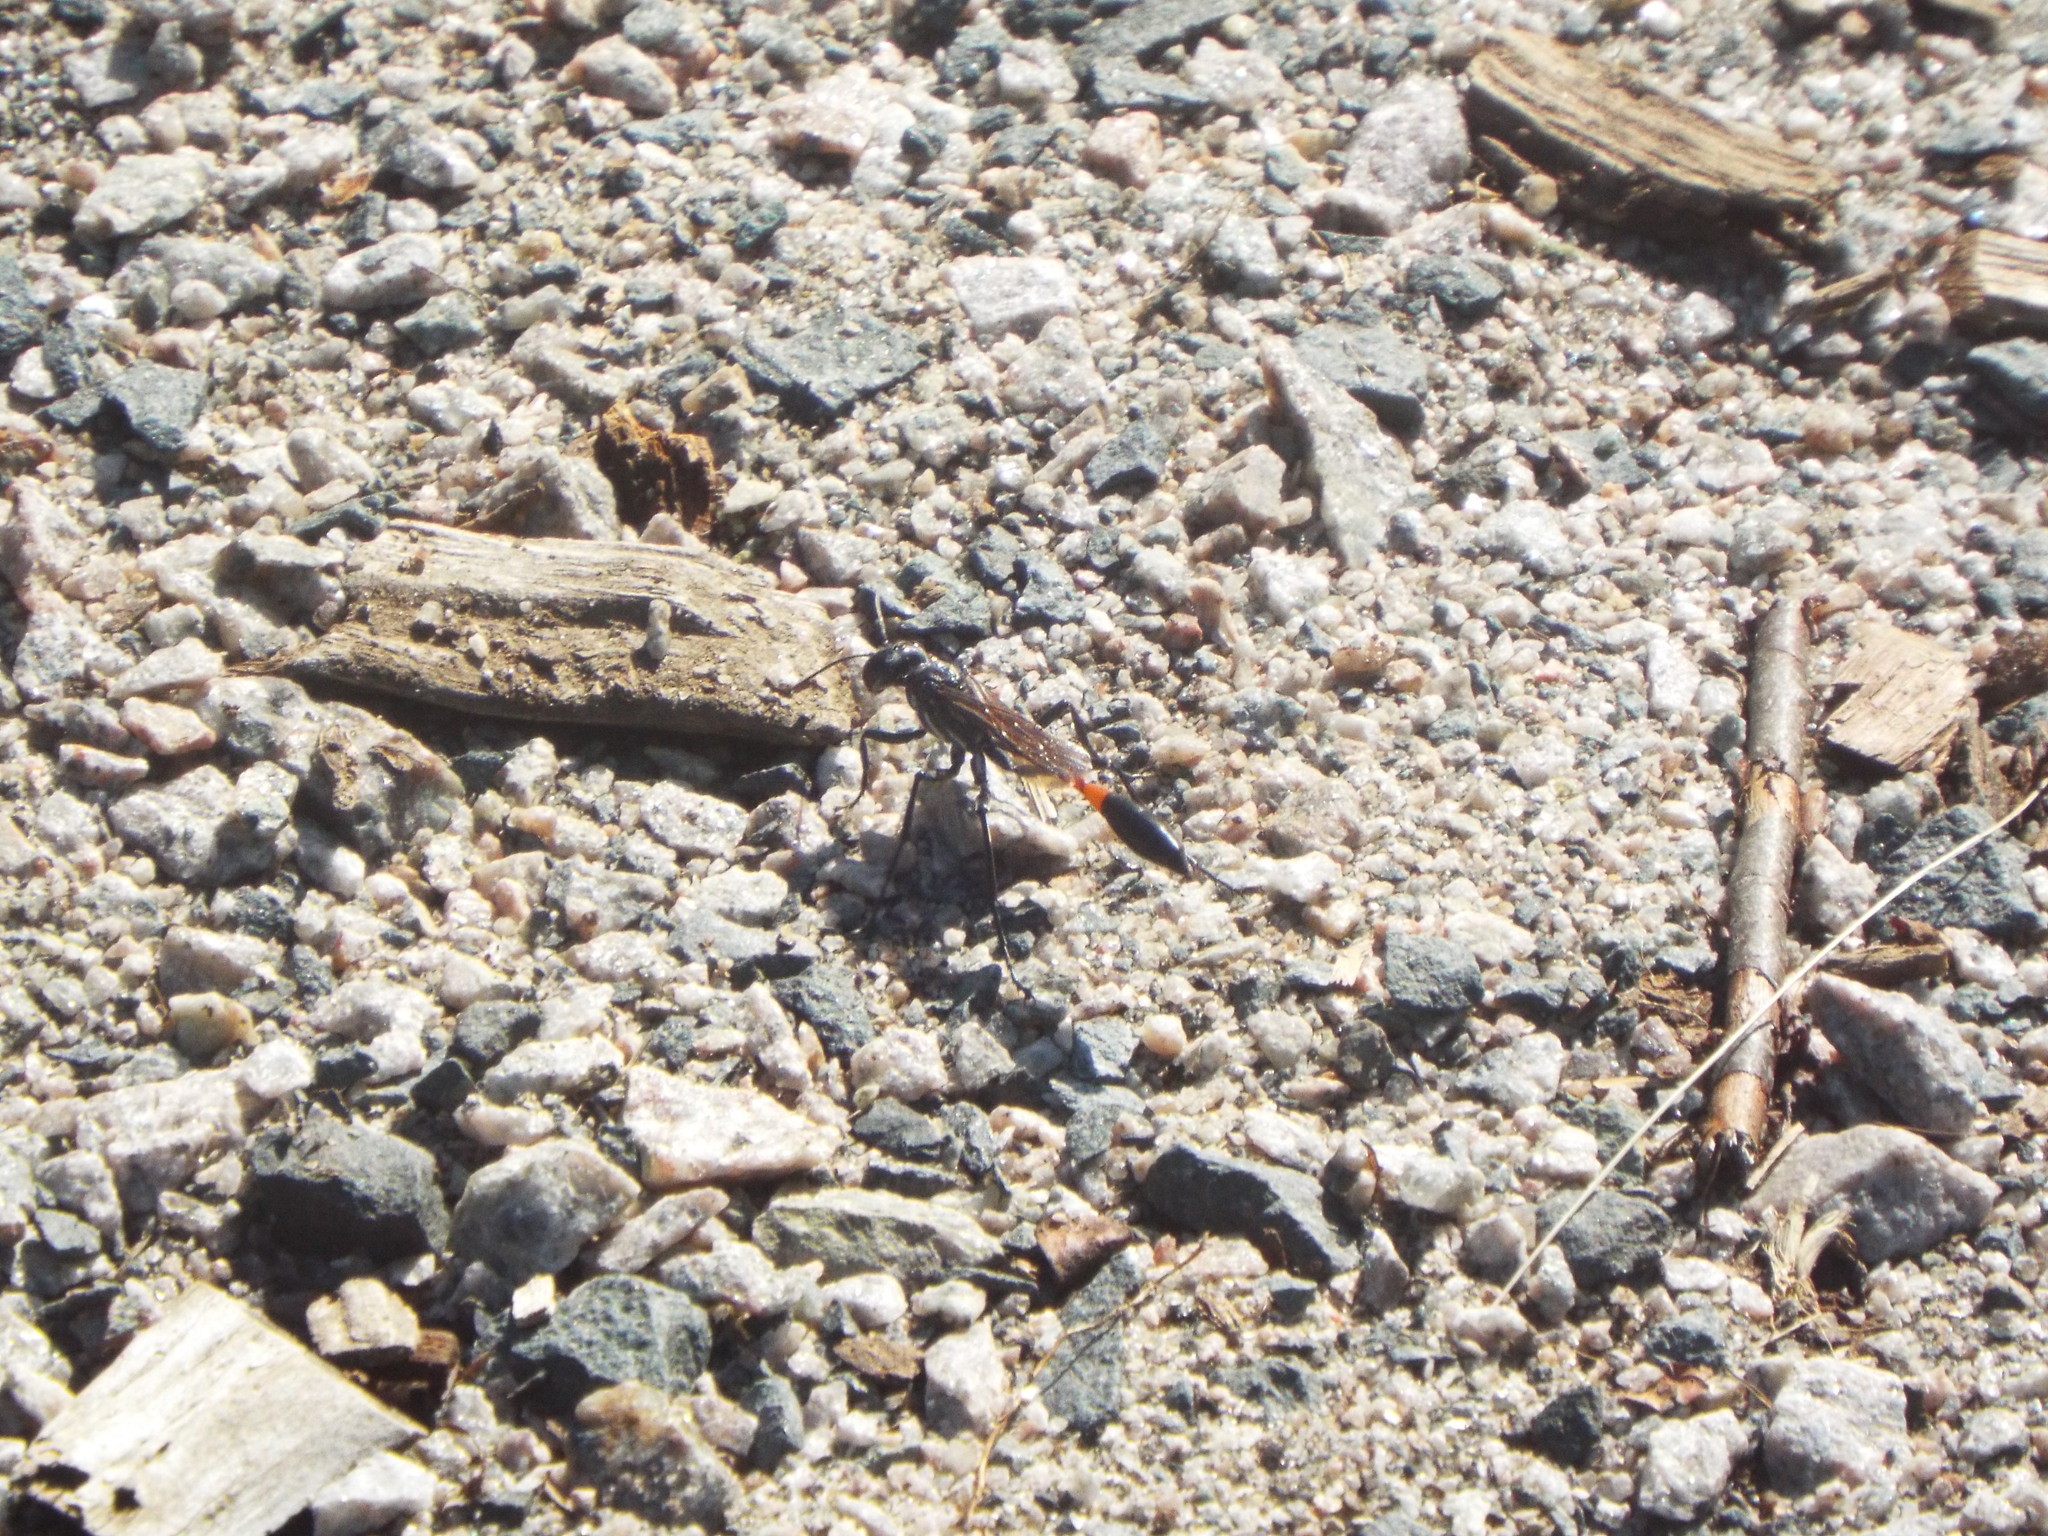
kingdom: Animalia
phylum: Arthropoda
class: Insecta
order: Hymenoptera
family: Sphecidae
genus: Ammophila
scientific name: Ammophila procera
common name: Common thread-waisted wasp
